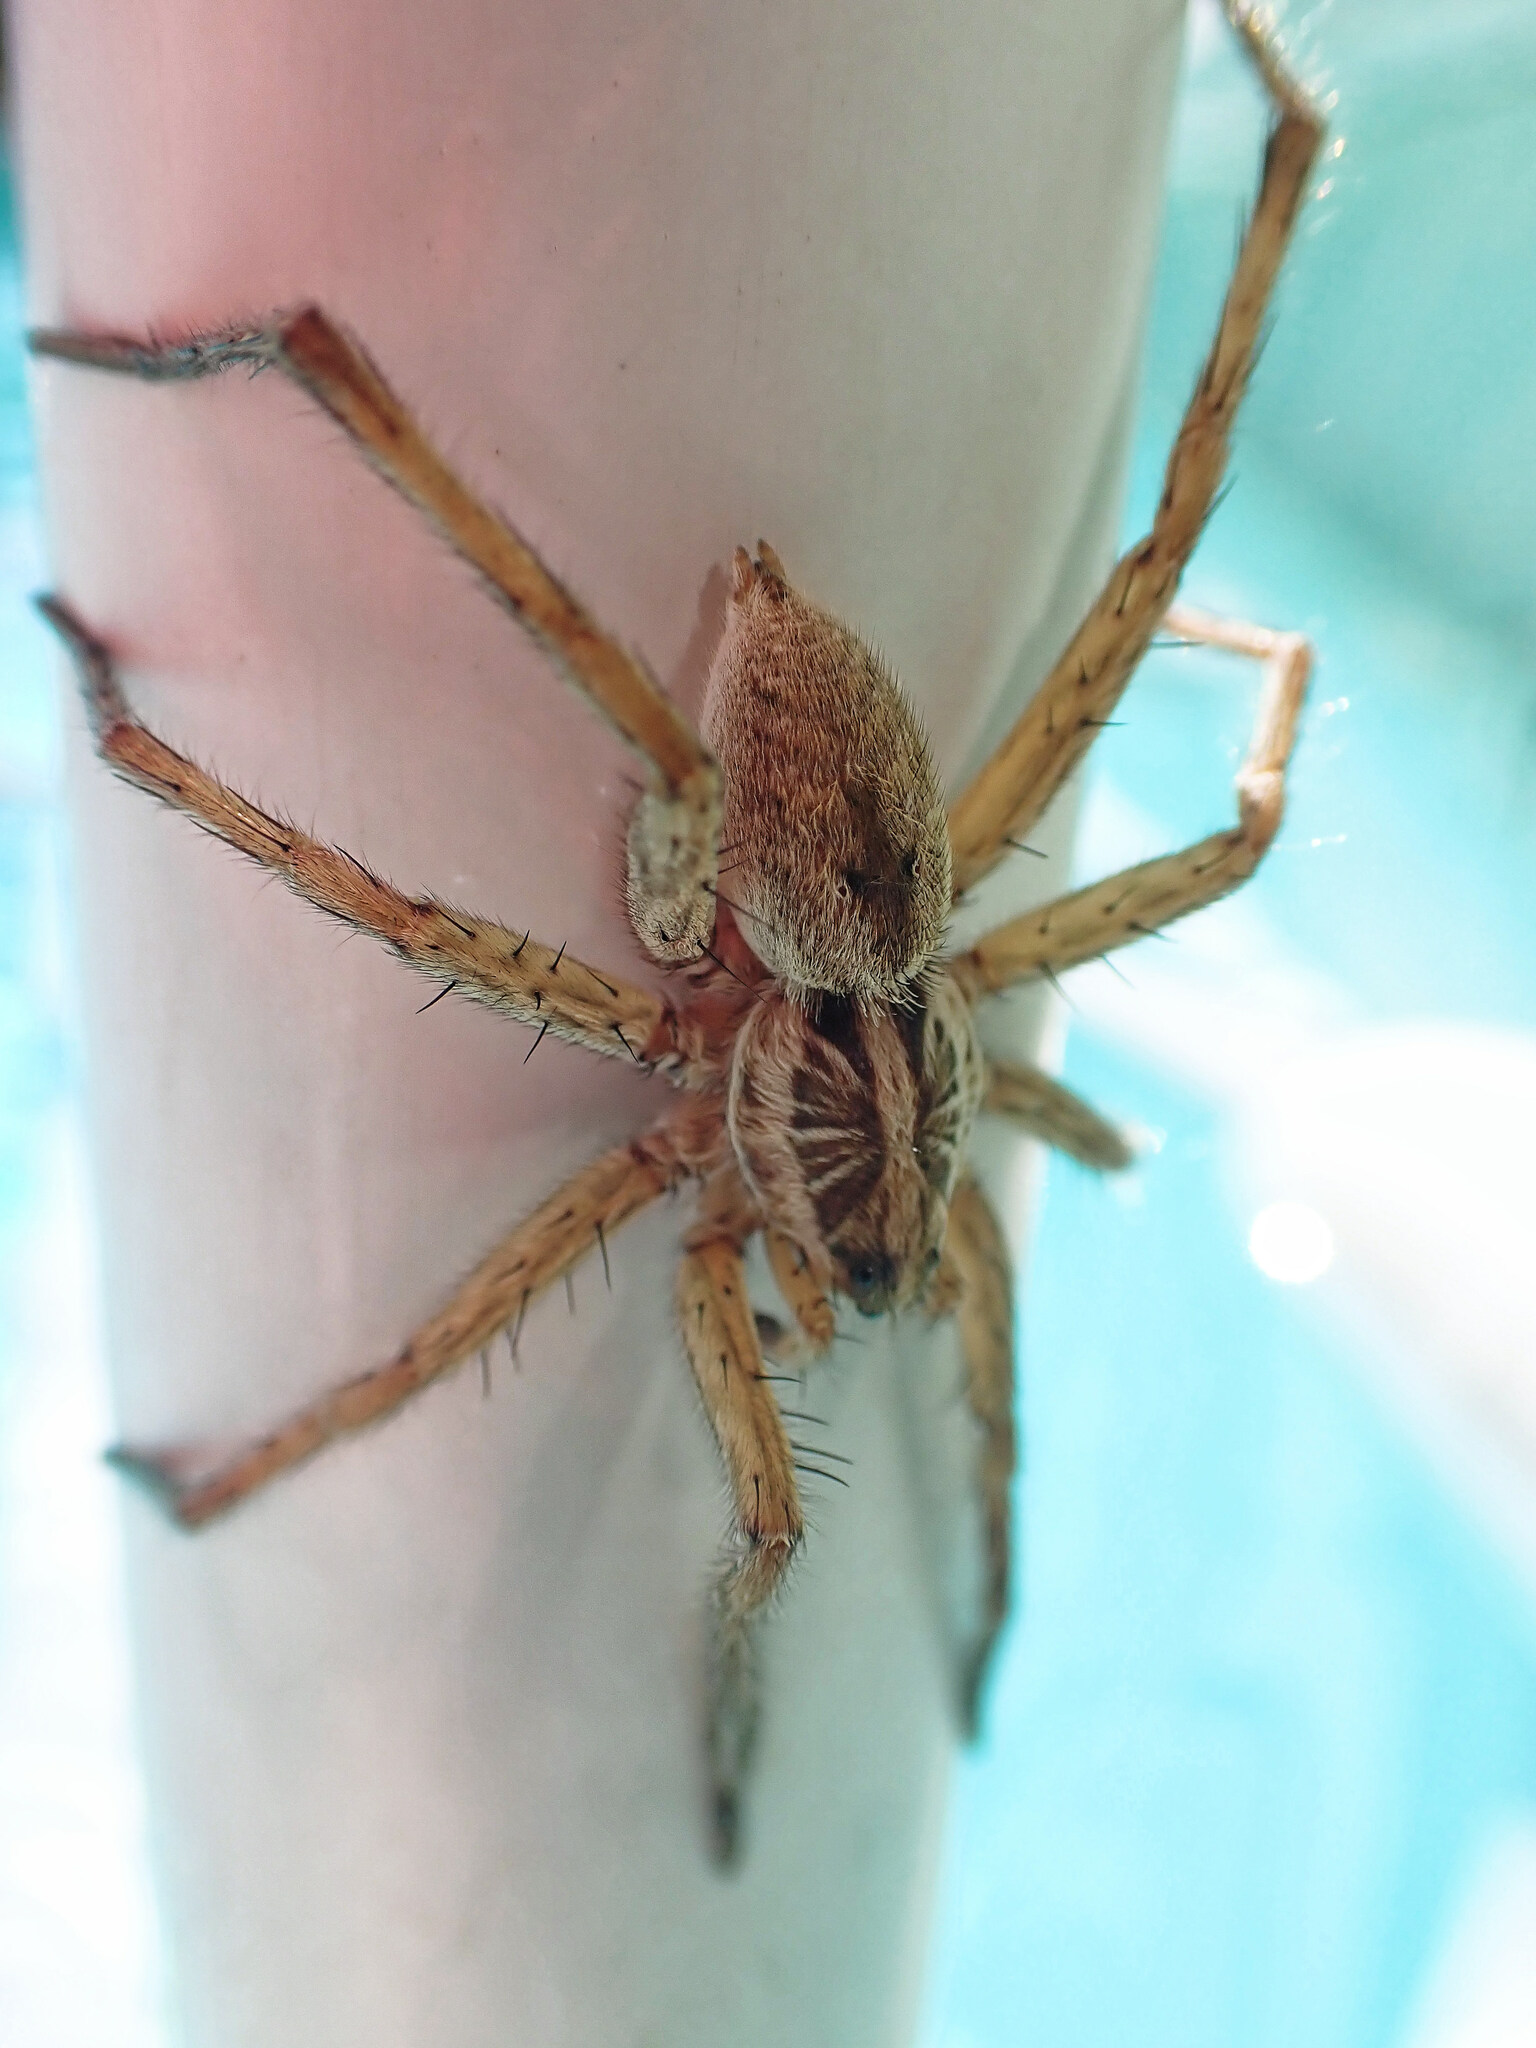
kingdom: Animalia
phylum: Arthropoda
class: Arachnida
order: Araneae
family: Lycosidae
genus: Hogna
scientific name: Hogna radiata
